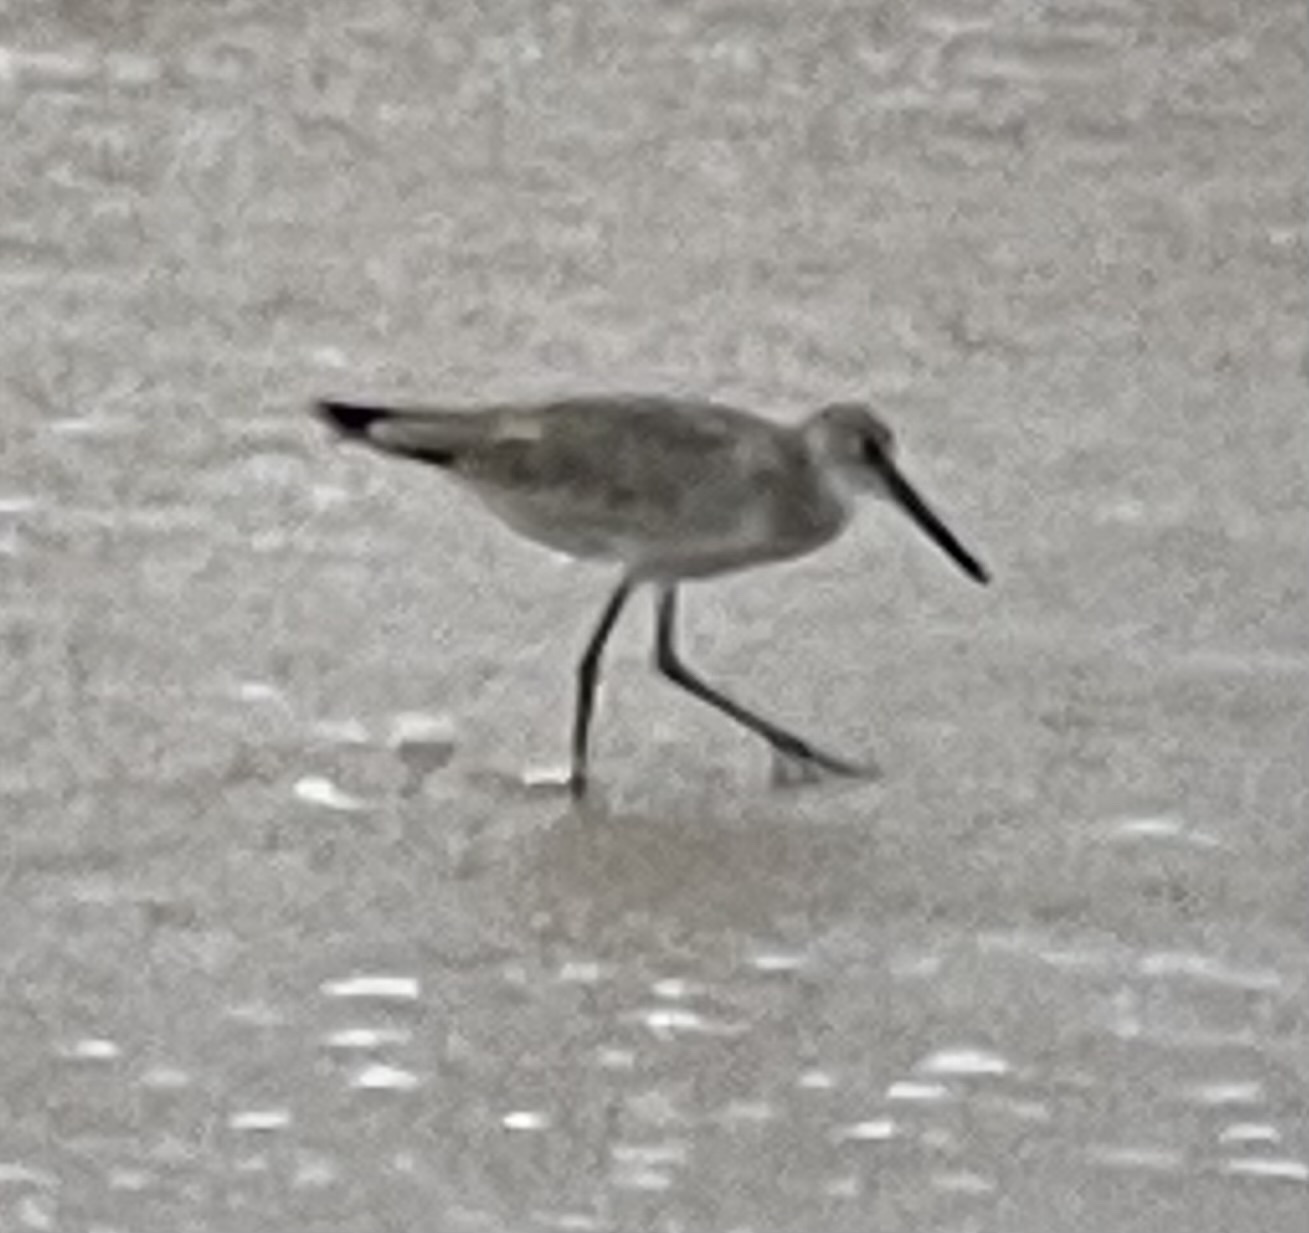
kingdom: Animalia
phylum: Chordata
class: Aves
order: Charadriiformes
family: Scolopacidae
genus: Tringa
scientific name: Tringa semipalmata
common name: Willet
